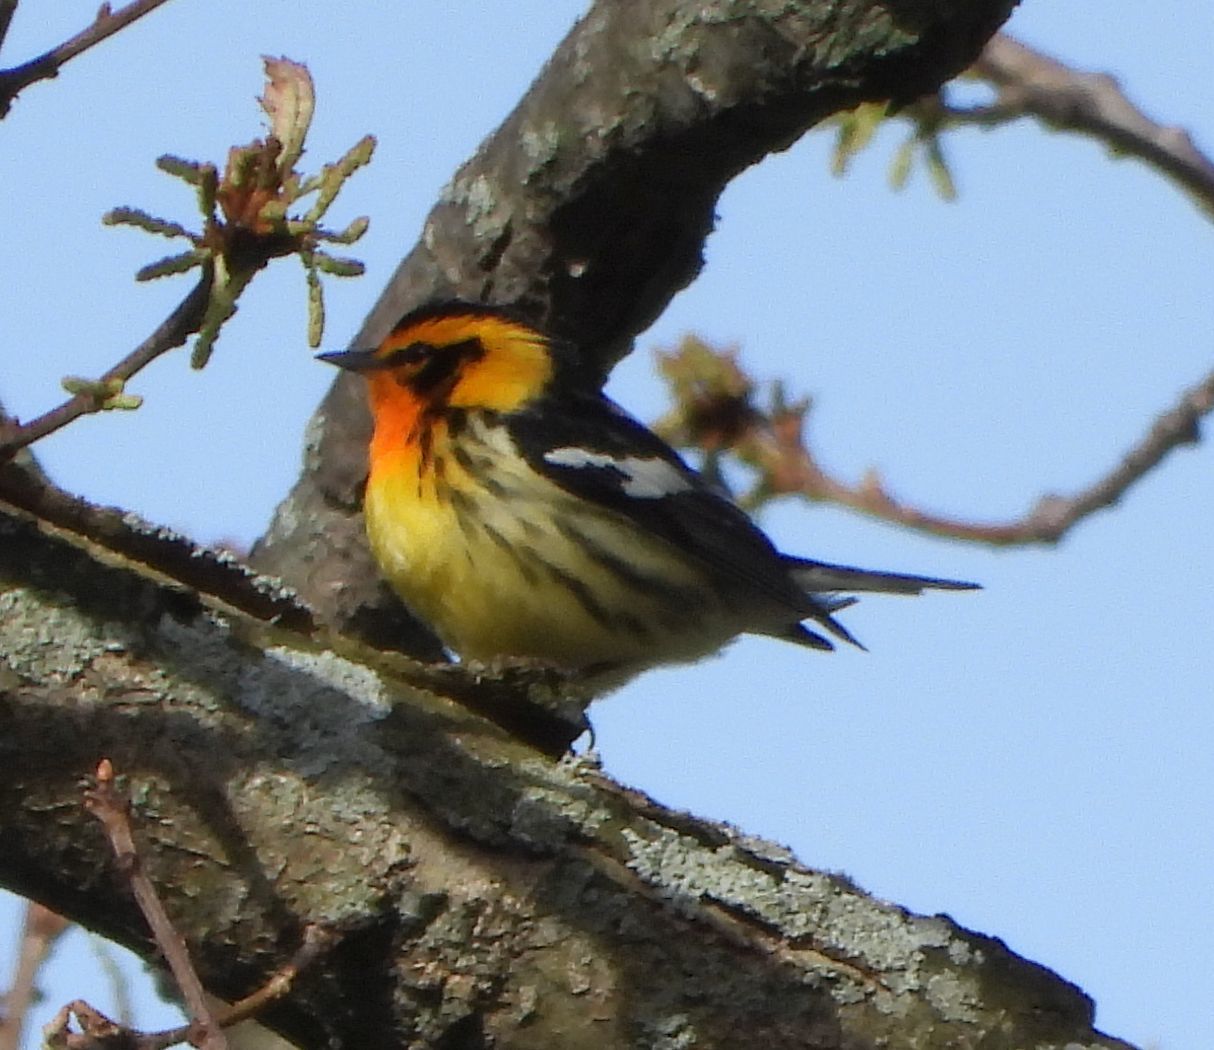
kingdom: Animalia
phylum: Chordata
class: Aves
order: Passeriformes
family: Parulidae
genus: Setophaga
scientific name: Setophaga fusca
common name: Blackburnian warbler
